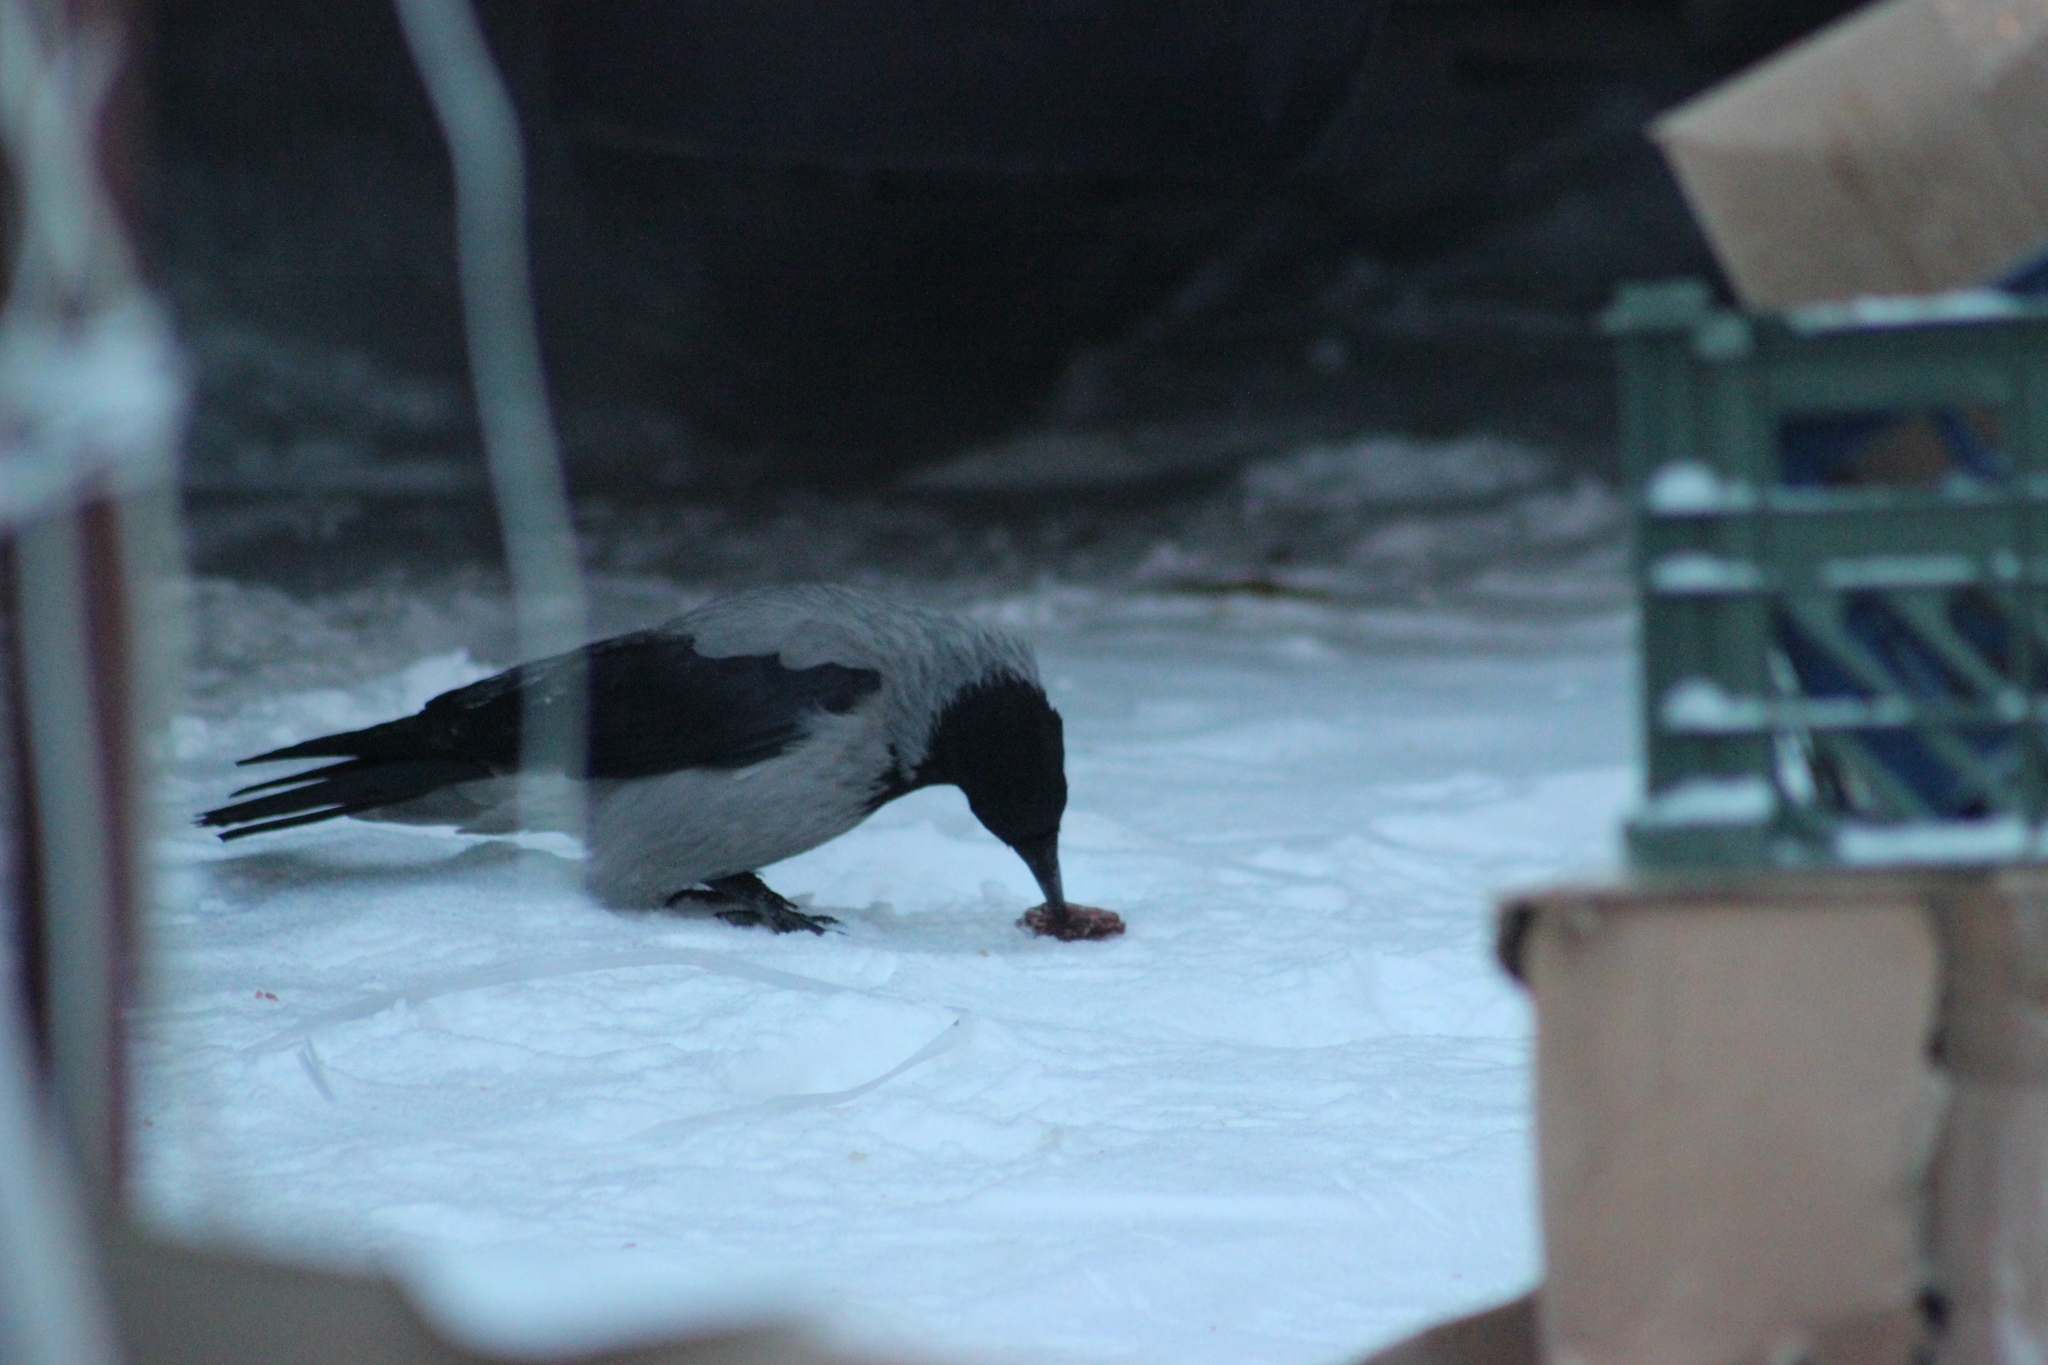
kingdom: Animalia
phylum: Chordata
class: Aves
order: Passeriformes
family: Corvidae
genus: Corvus
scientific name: Corvus cornix
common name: Hooded crow
